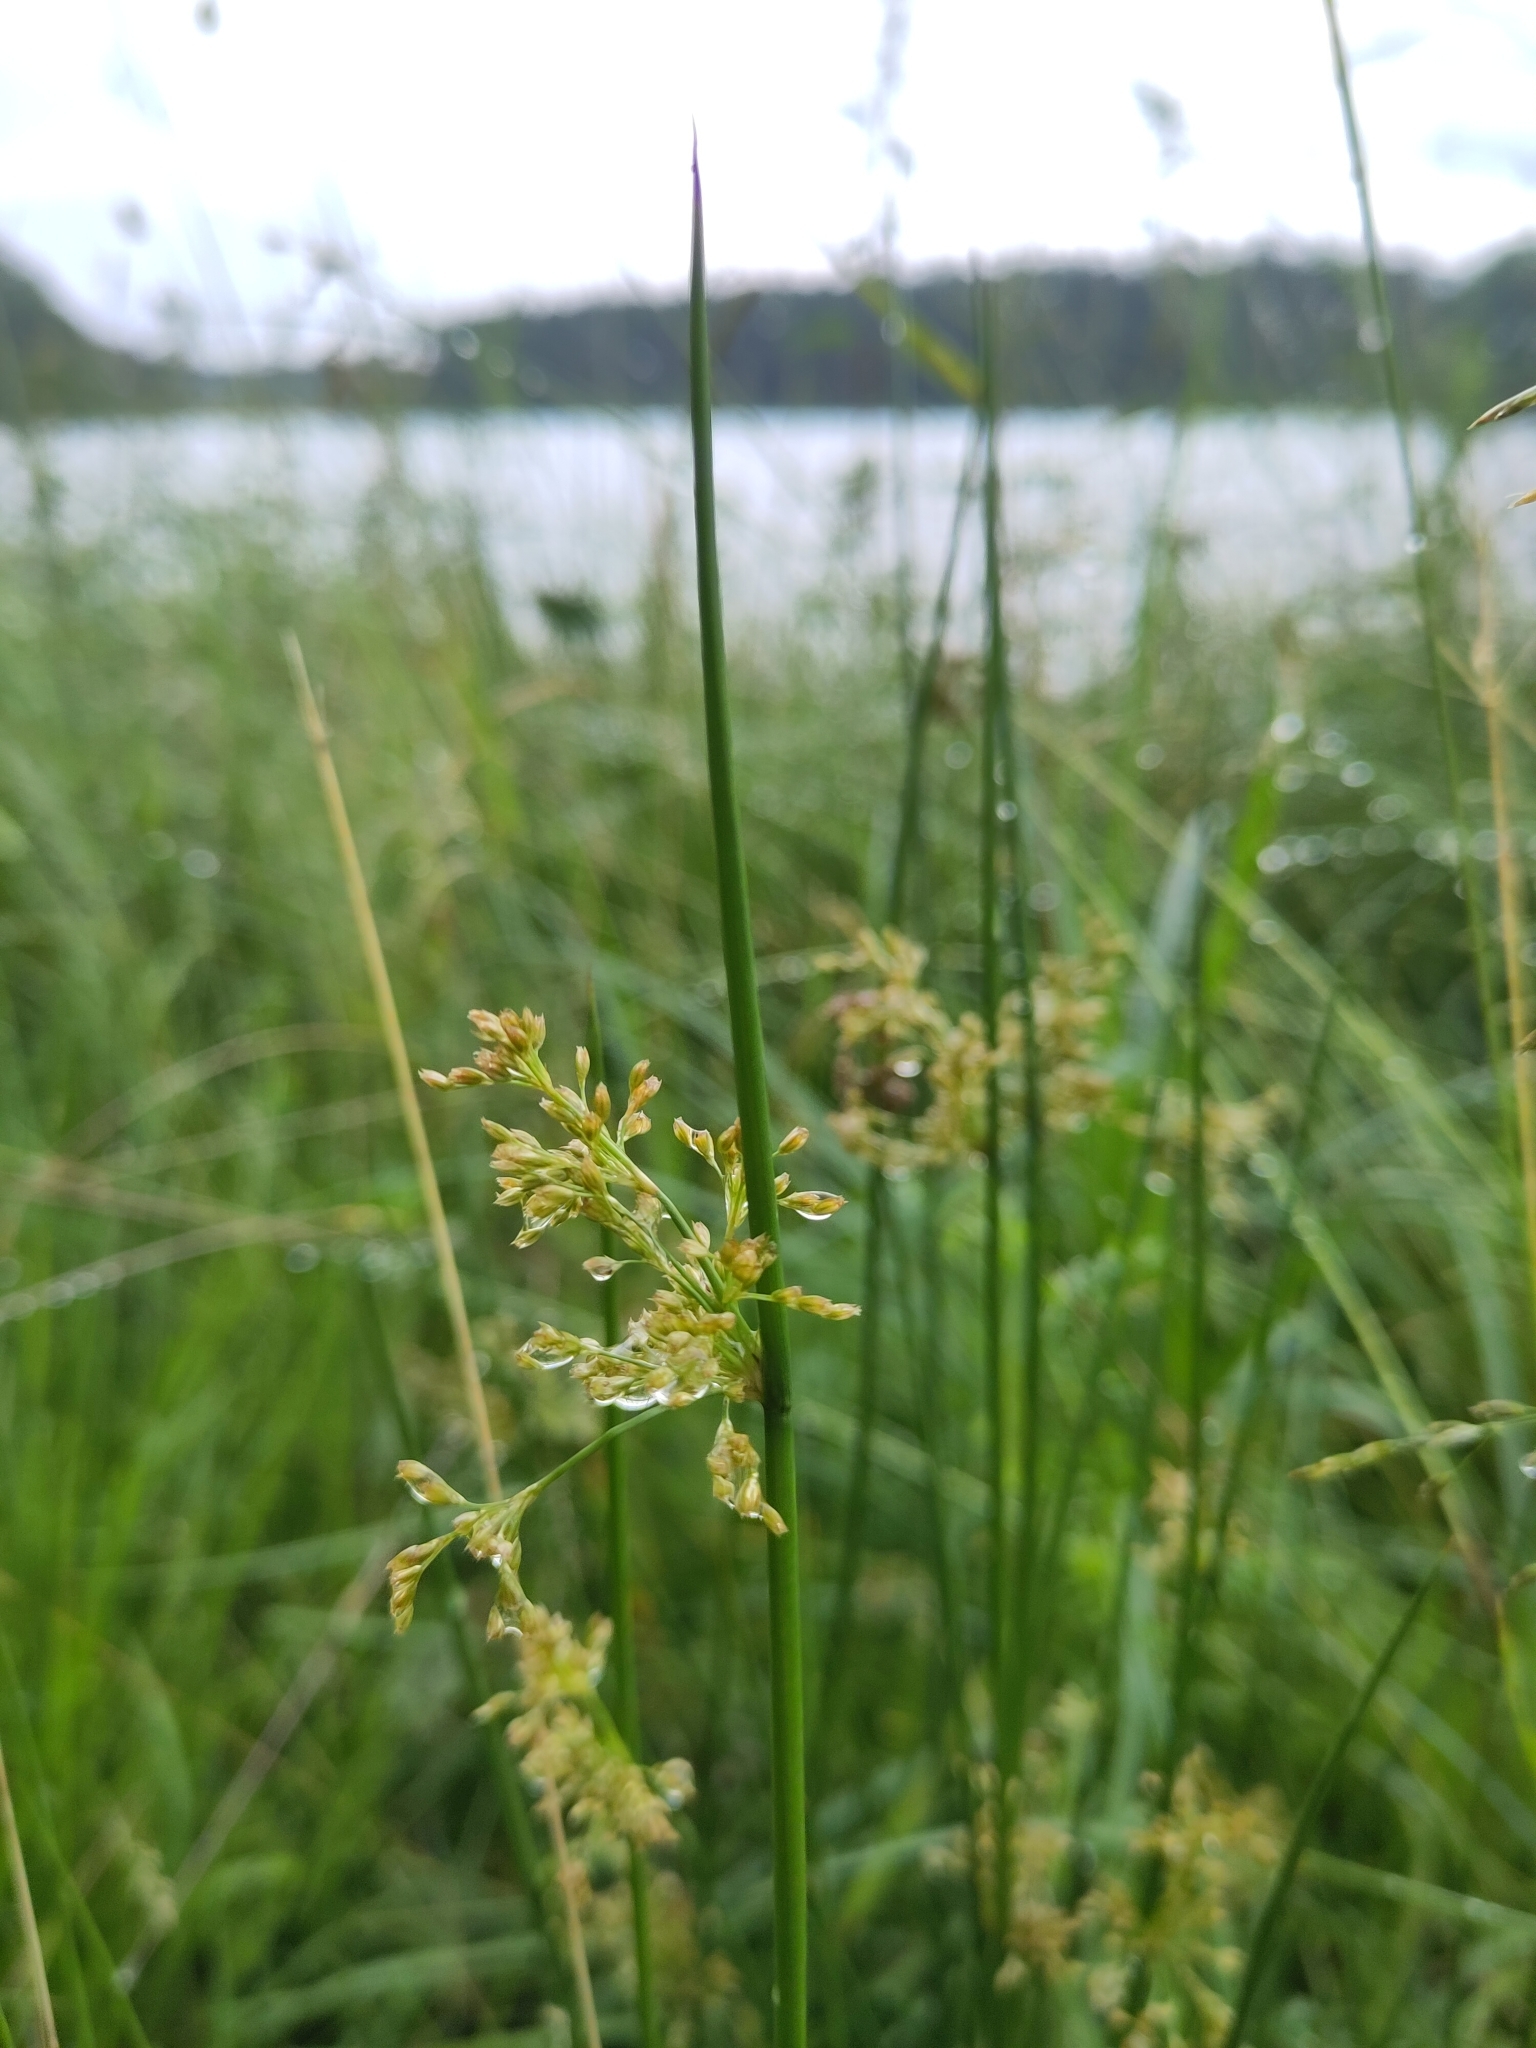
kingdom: Plantae
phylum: Tracheophyta
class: Liliopsida
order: Poales
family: Juncaceae
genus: Juncus
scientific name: Juncus effusus
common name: Soft rush
